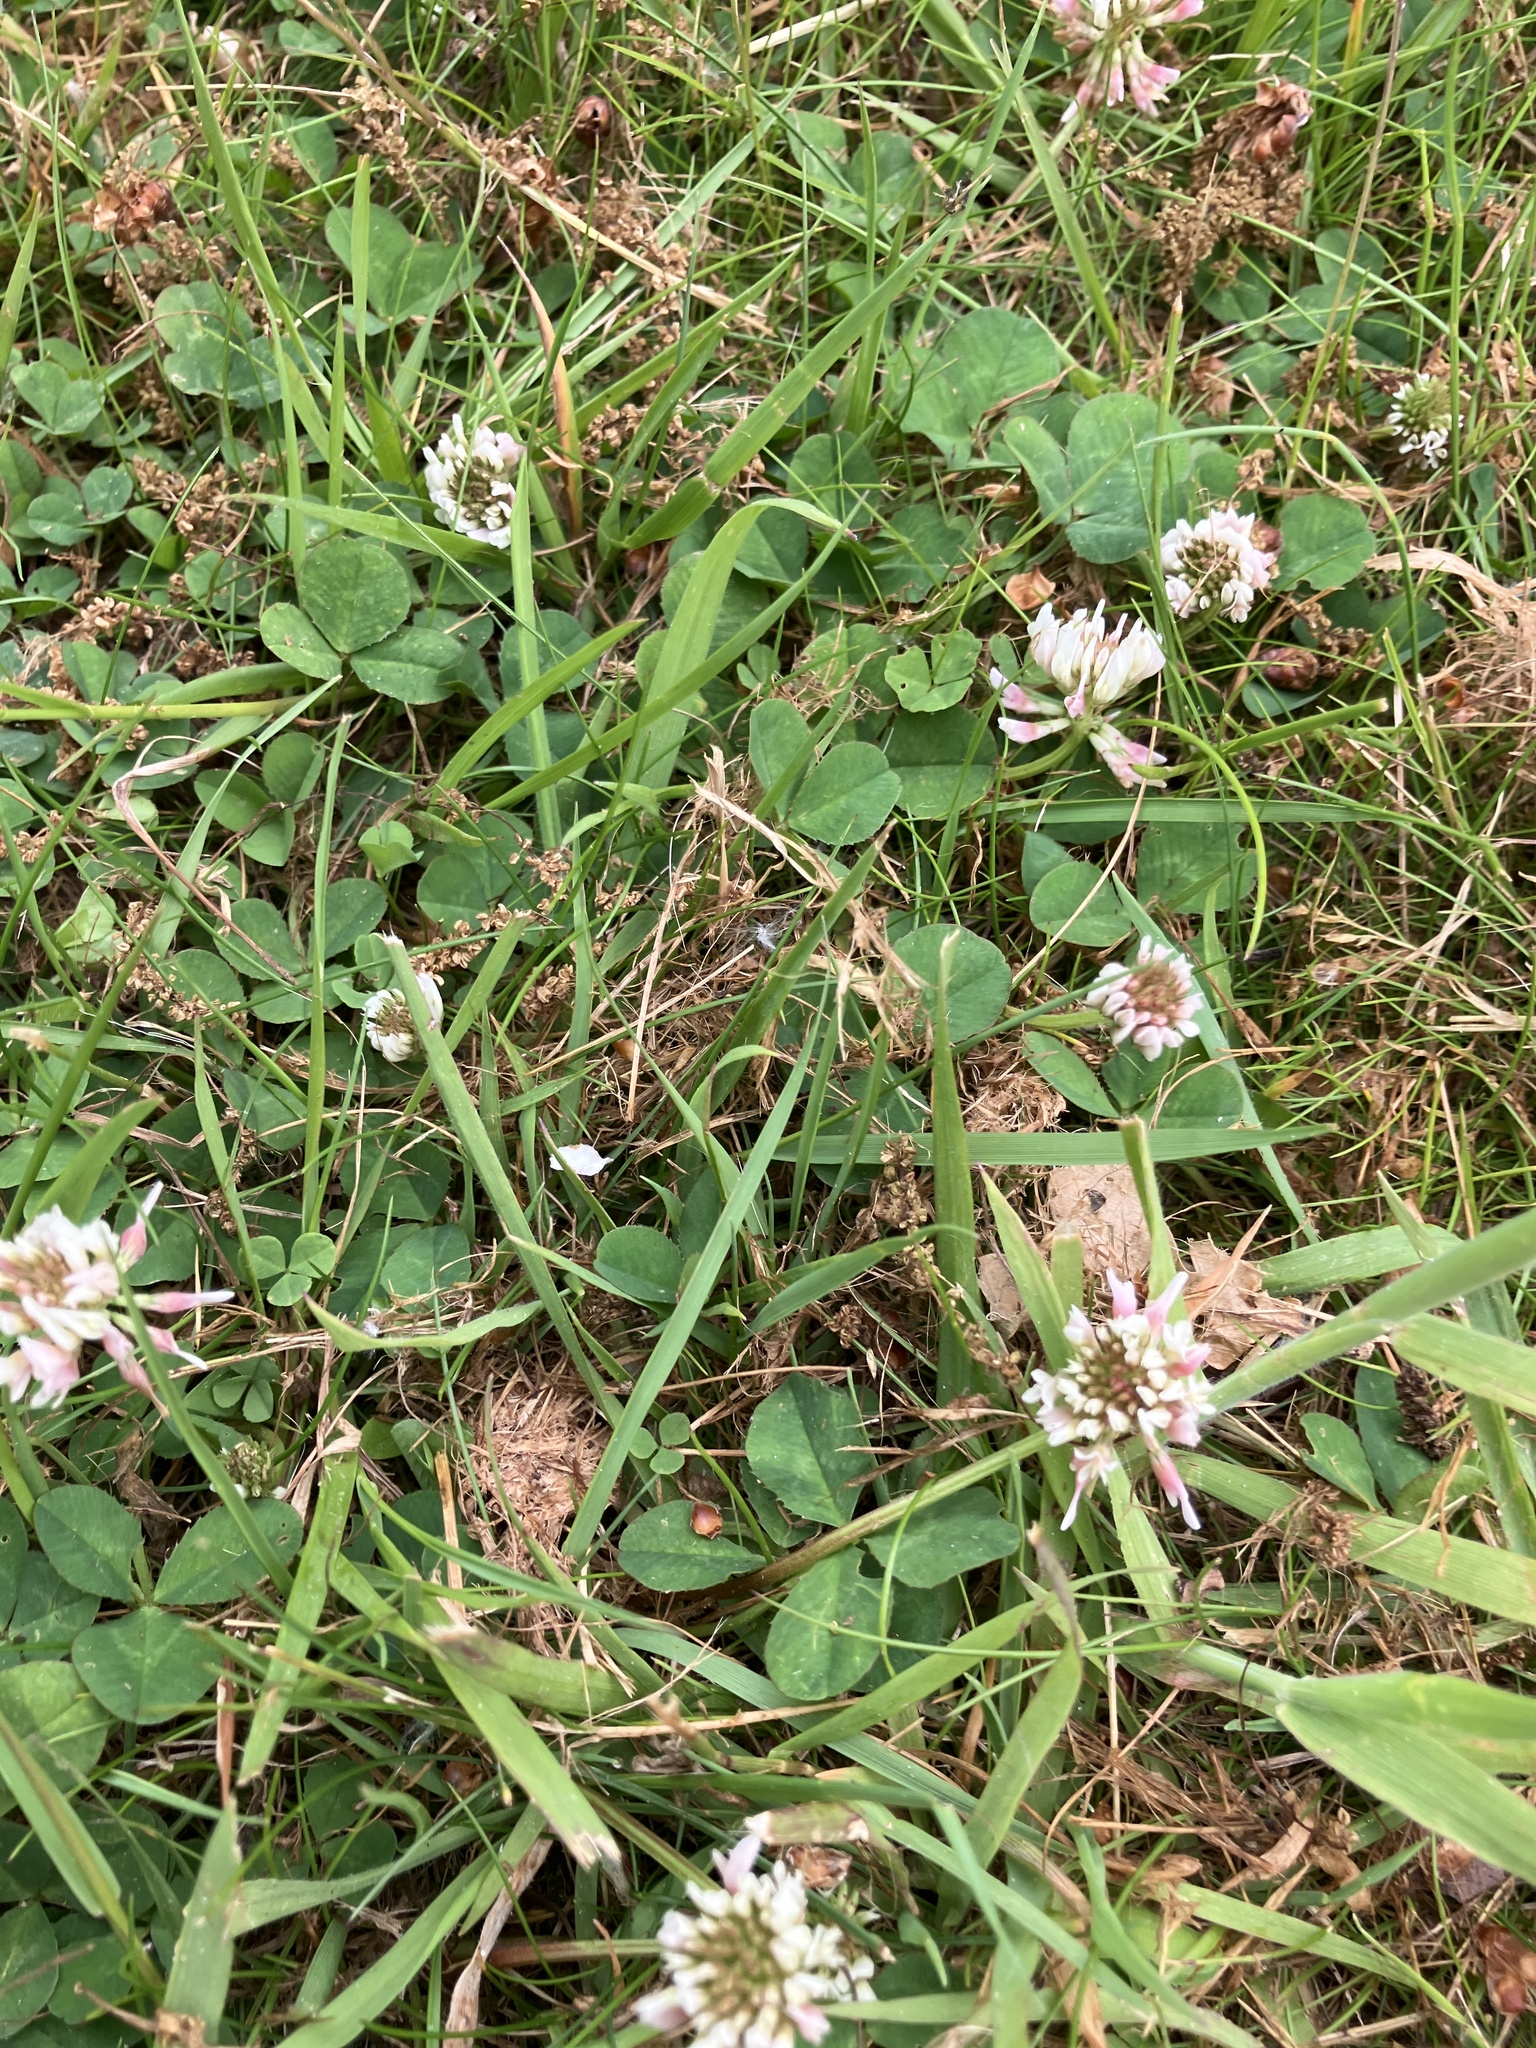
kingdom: Plantae
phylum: Tracheophyta
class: Magnoliopsida
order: Fabales
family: Fabaceae
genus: Trifolium
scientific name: Trifolium repens
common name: White clover
